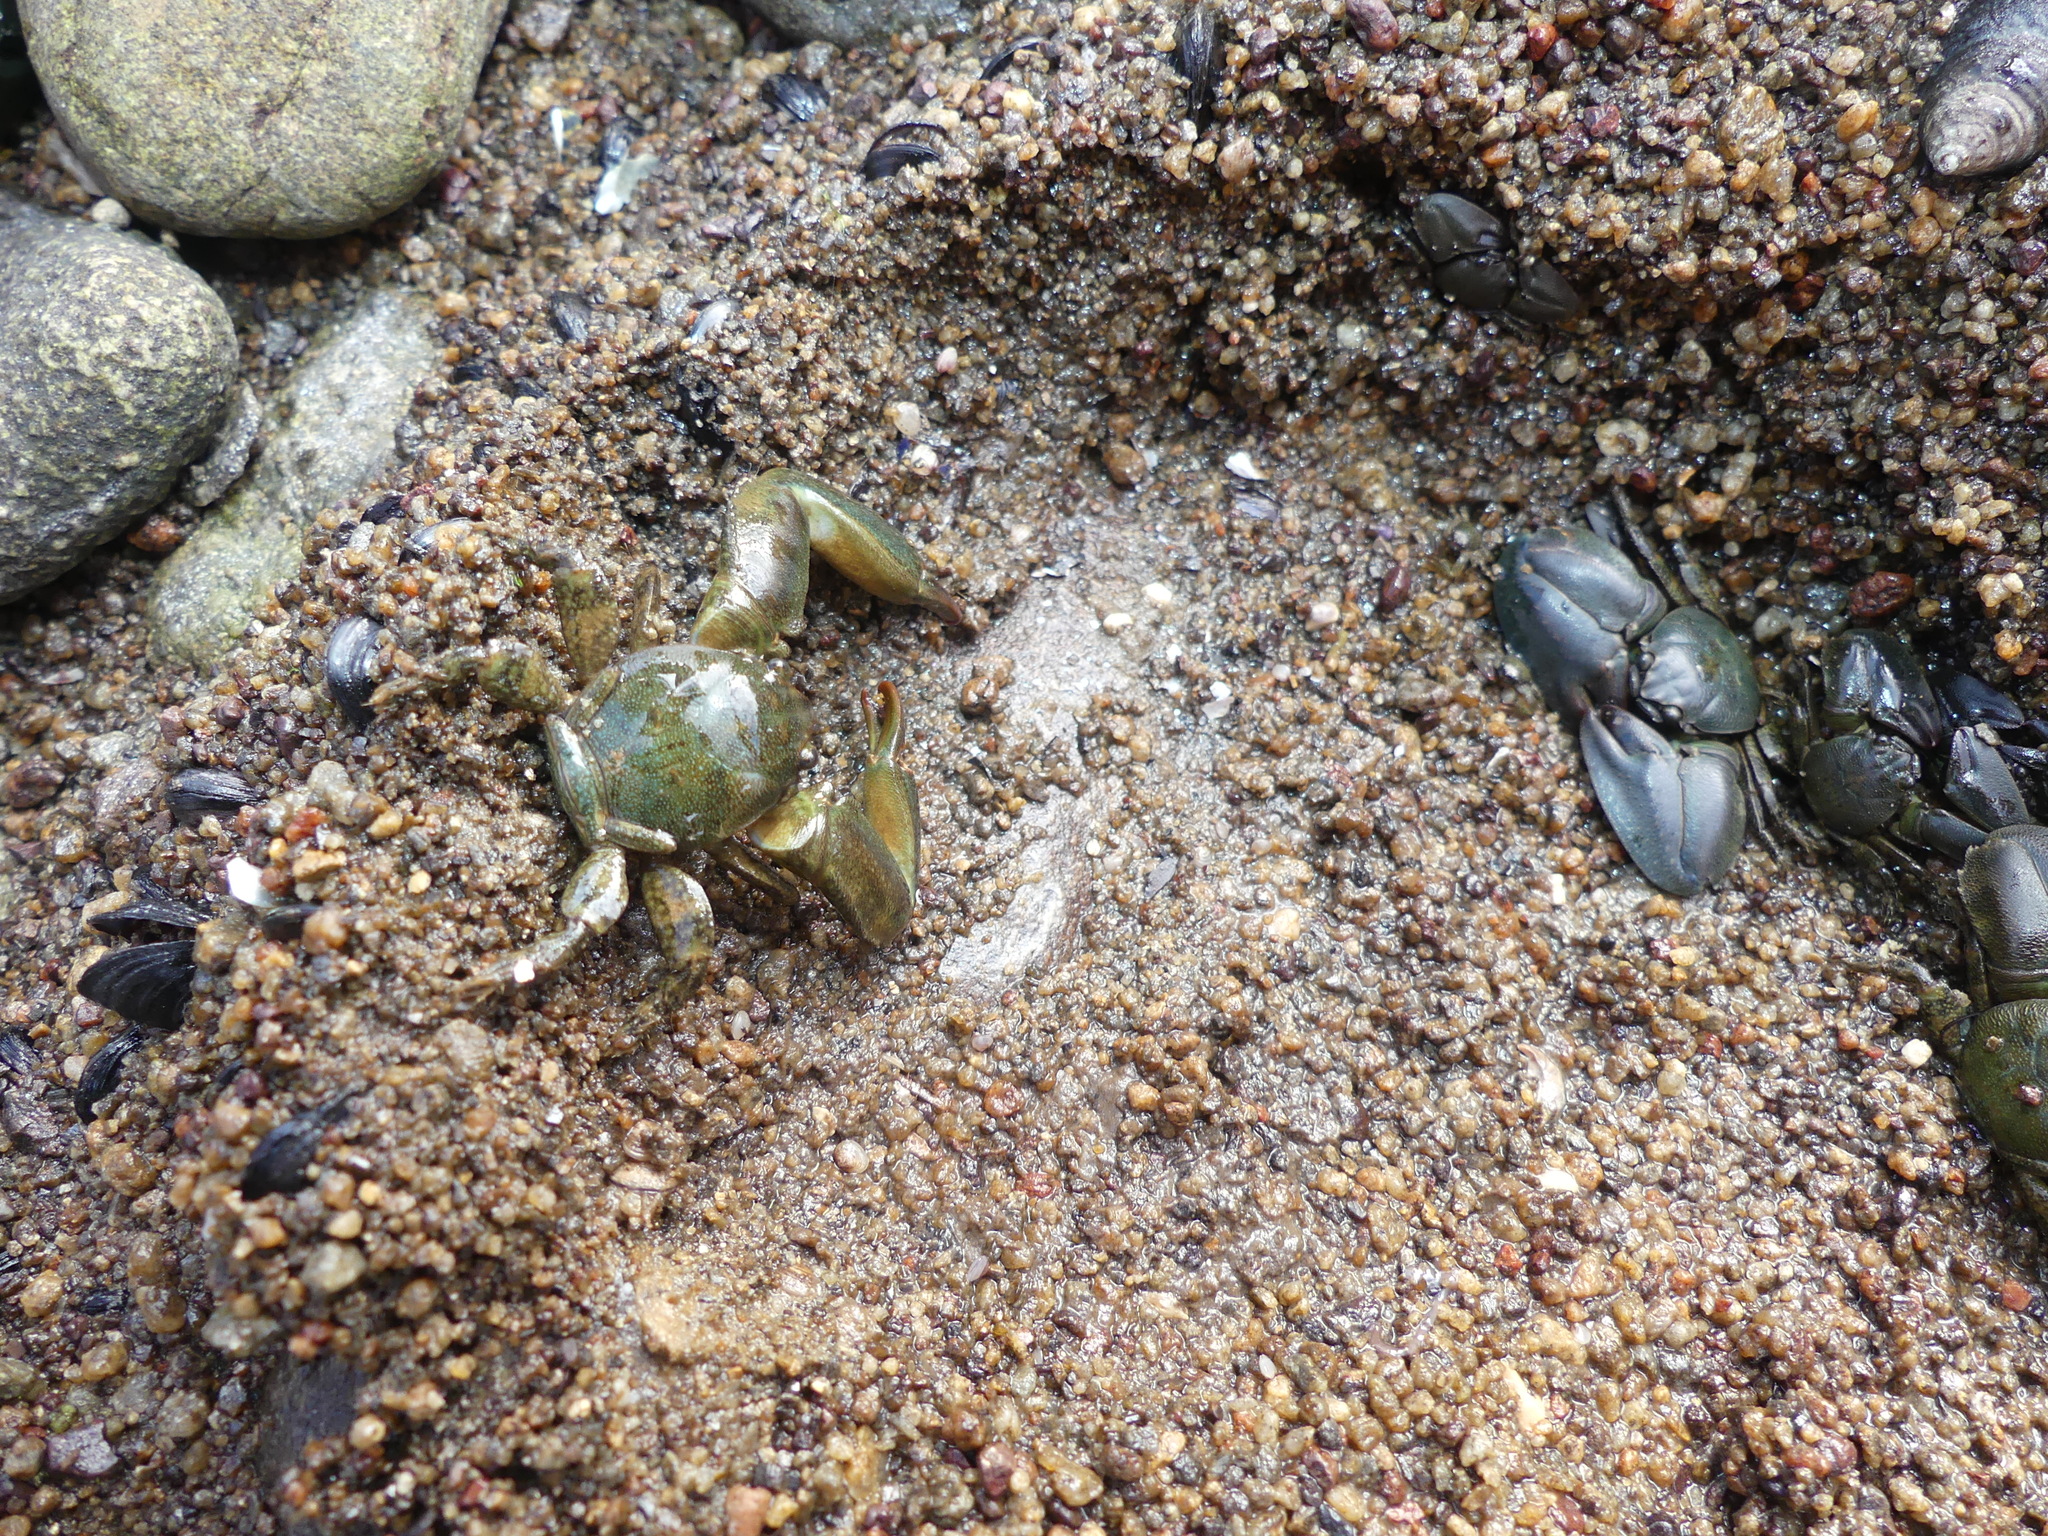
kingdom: Animalia
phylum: Arthropoda
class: Malacostraca
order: Decapoda
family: Porcellanidae
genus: Petrolisthes
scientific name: Petrolisthes elongatus
